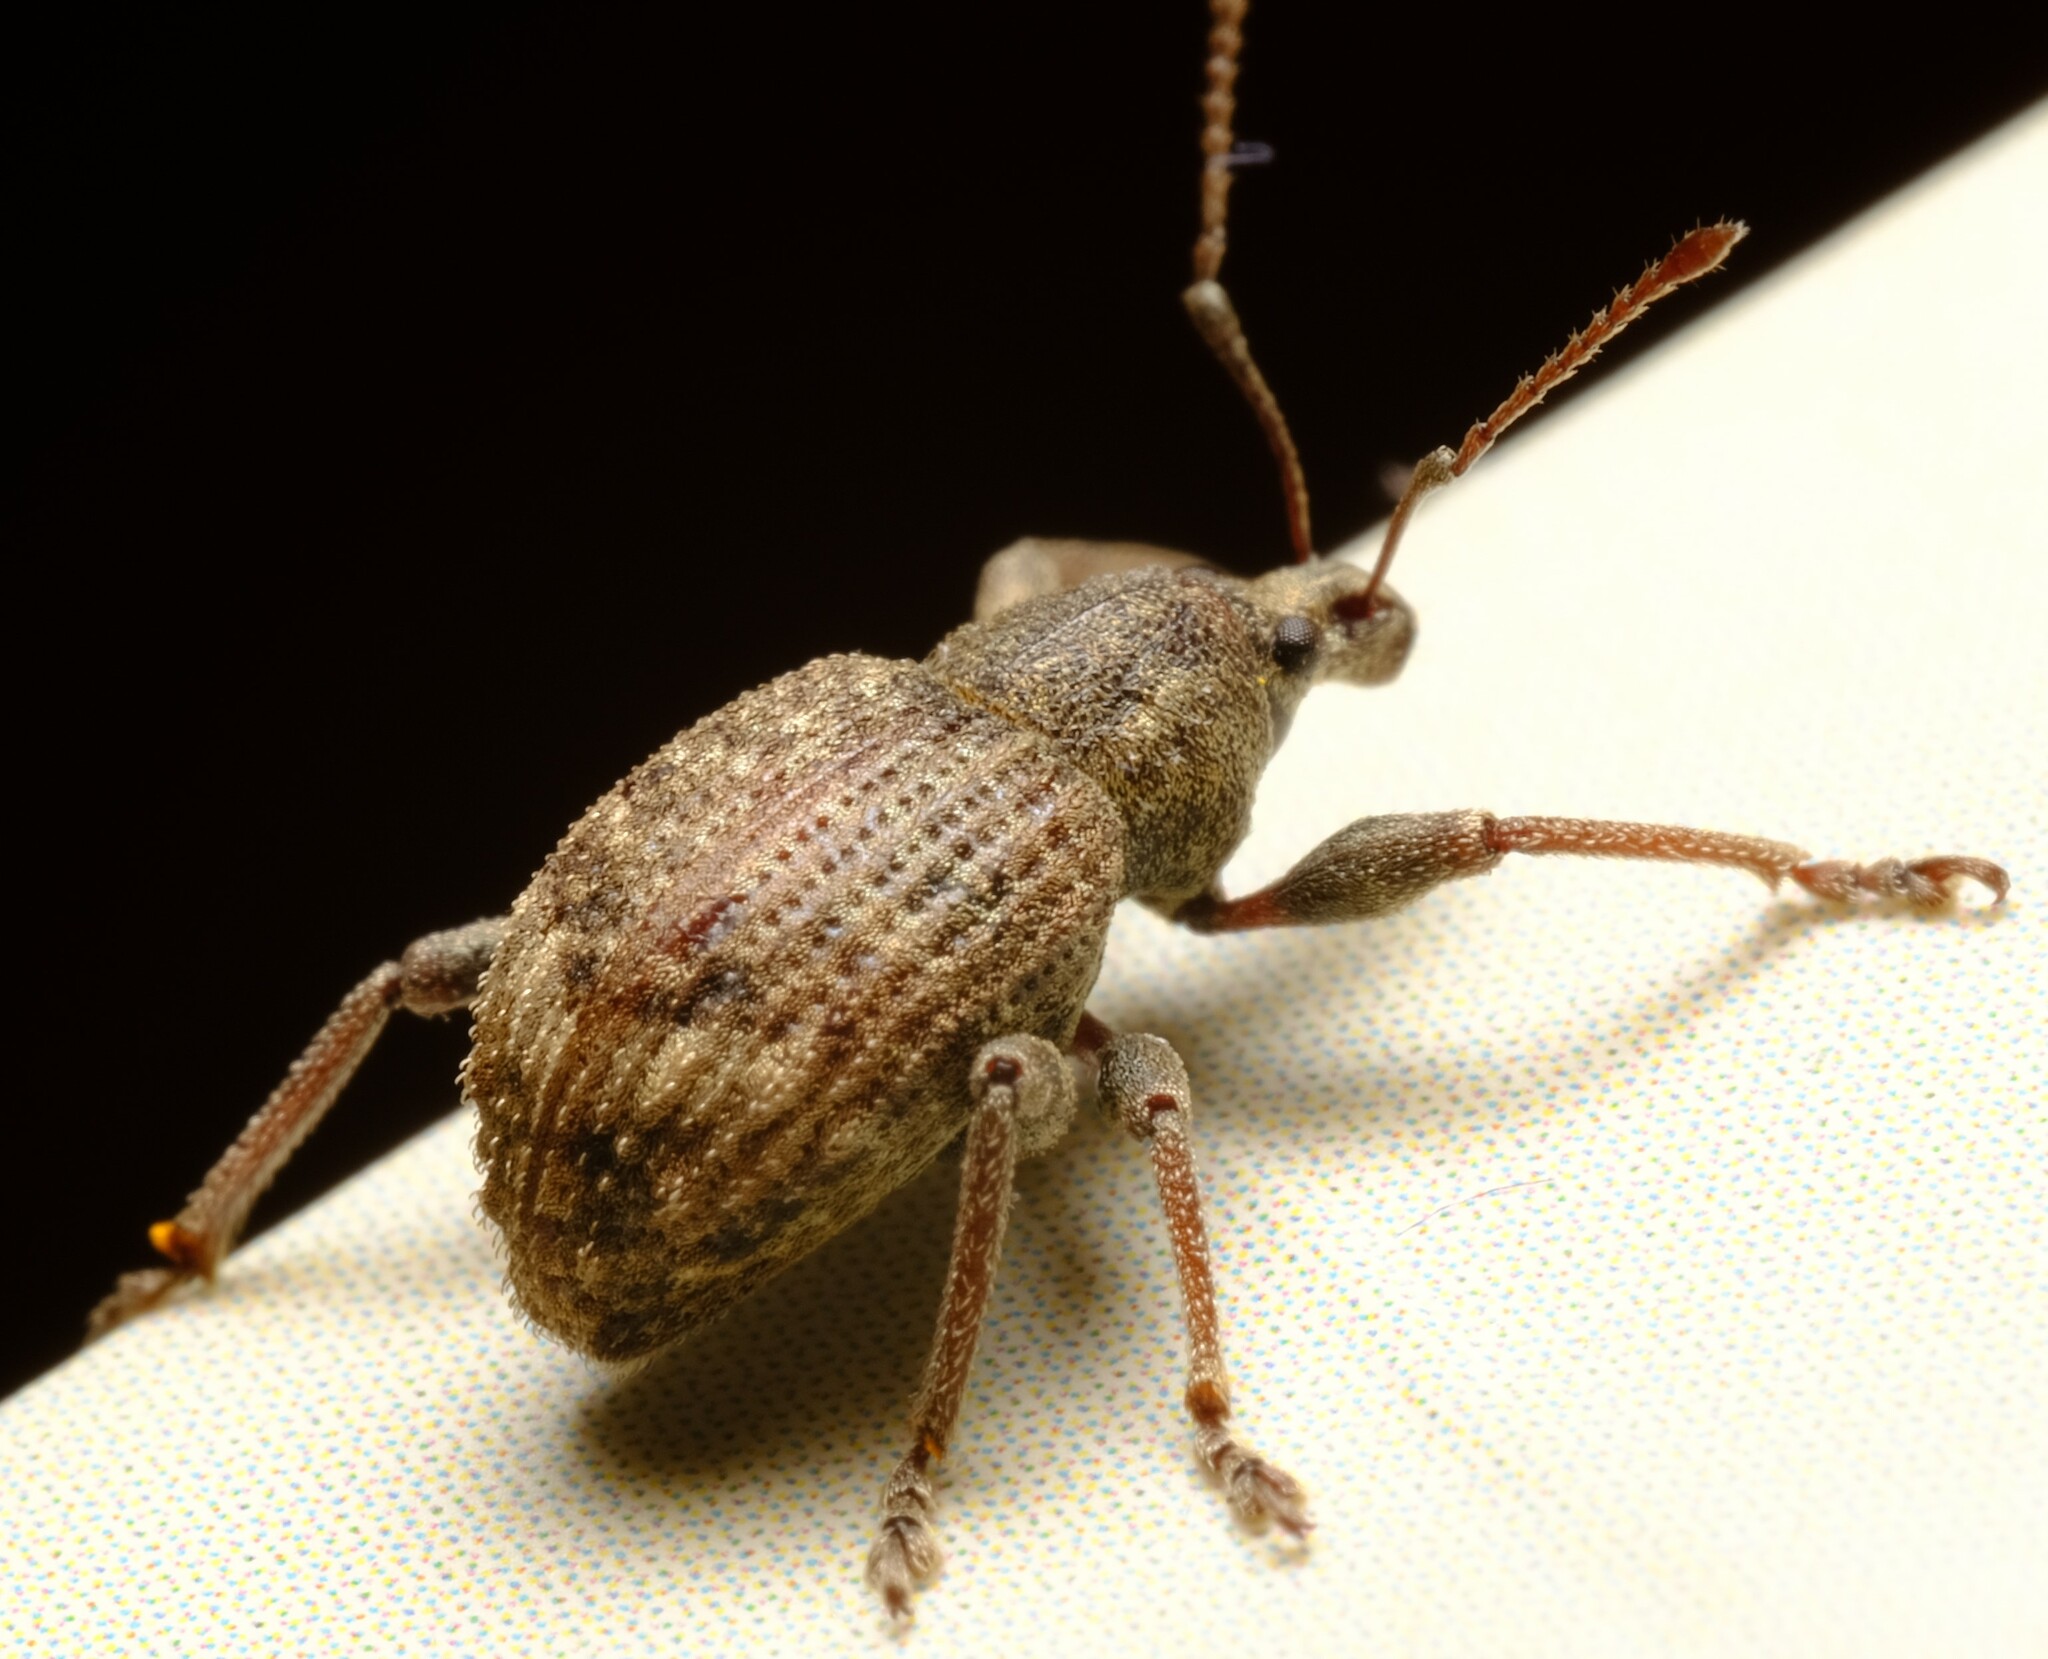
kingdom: Animalia
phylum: Arthropoda
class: Insecta
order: Coleoptera
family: Curculionidae
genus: Phlyctinus
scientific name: Phlyctinus callosus
